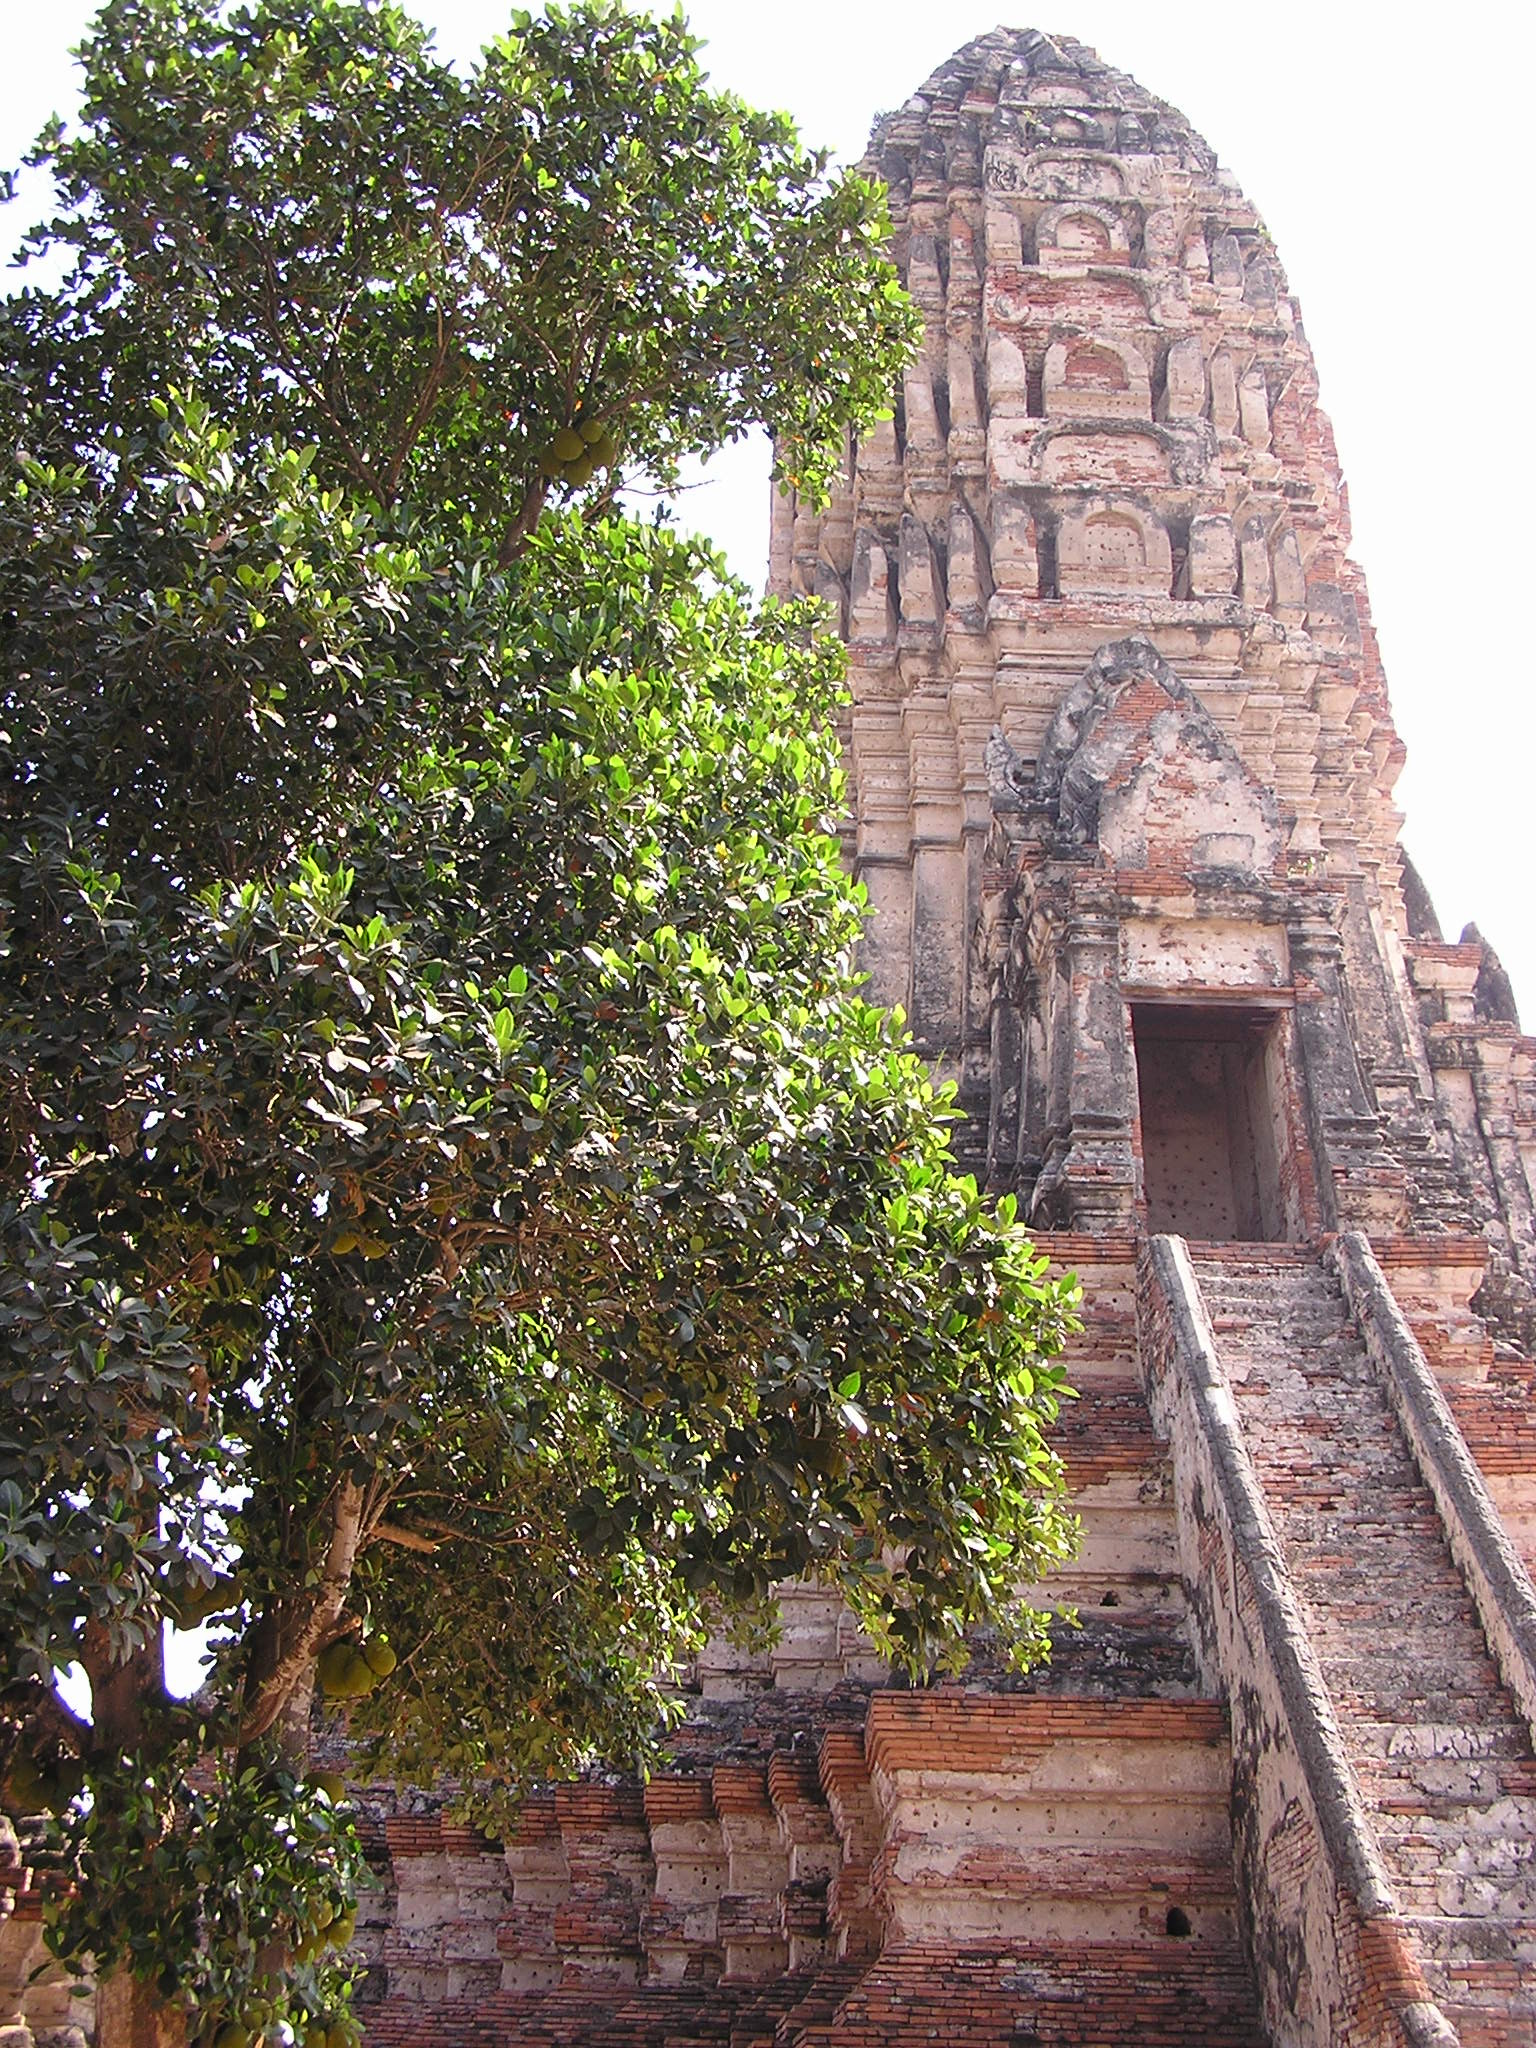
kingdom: Plantae
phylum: Tracheophyta
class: Magnoliopsida
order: Rosales
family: Moraceae
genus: Artocarpus
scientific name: Artocarpus heterophyllus
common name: Jackfruit
